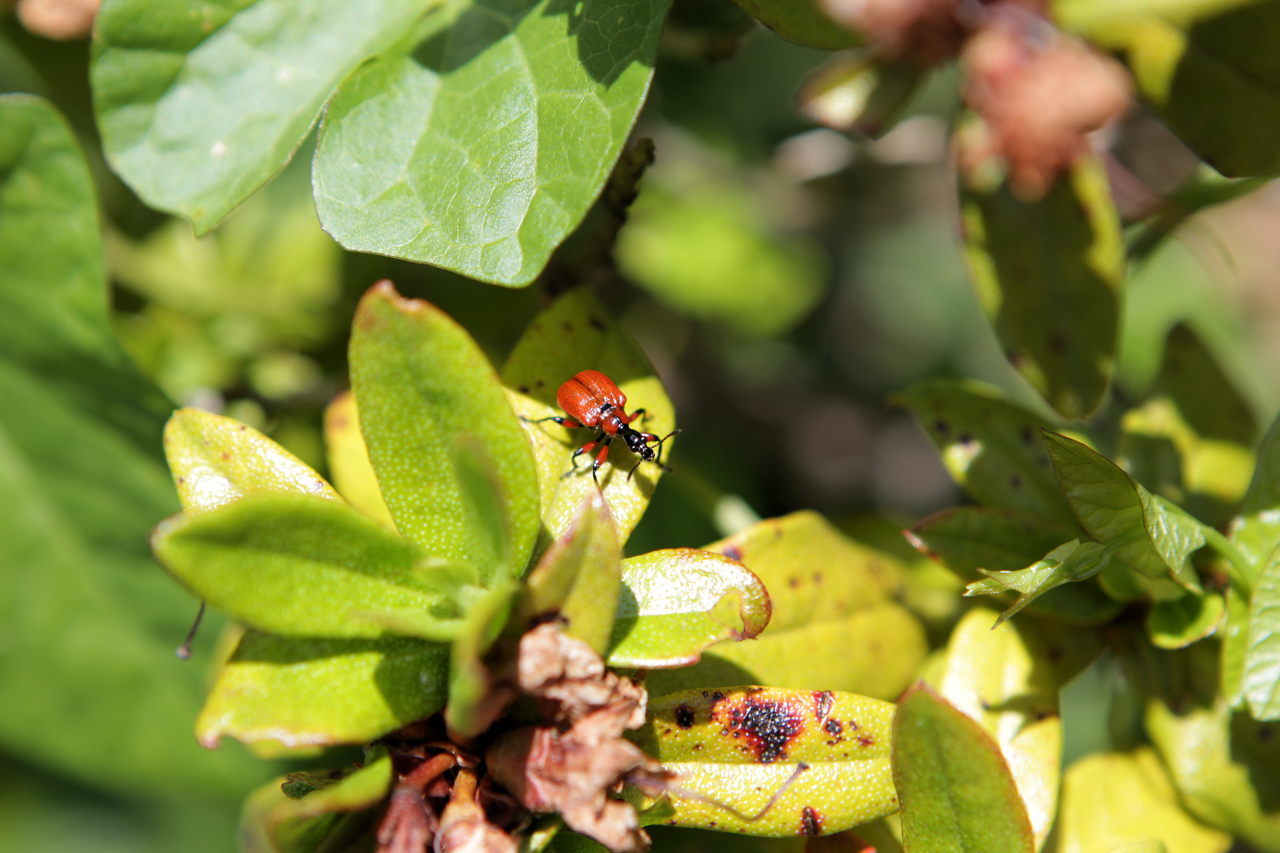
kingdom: Animalia
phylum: Arthropoda
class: Insecta
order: Coleoptera
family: Attelabidae
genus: Apoderus
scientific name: Apoderus coryli
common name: Hazel leaf roller
